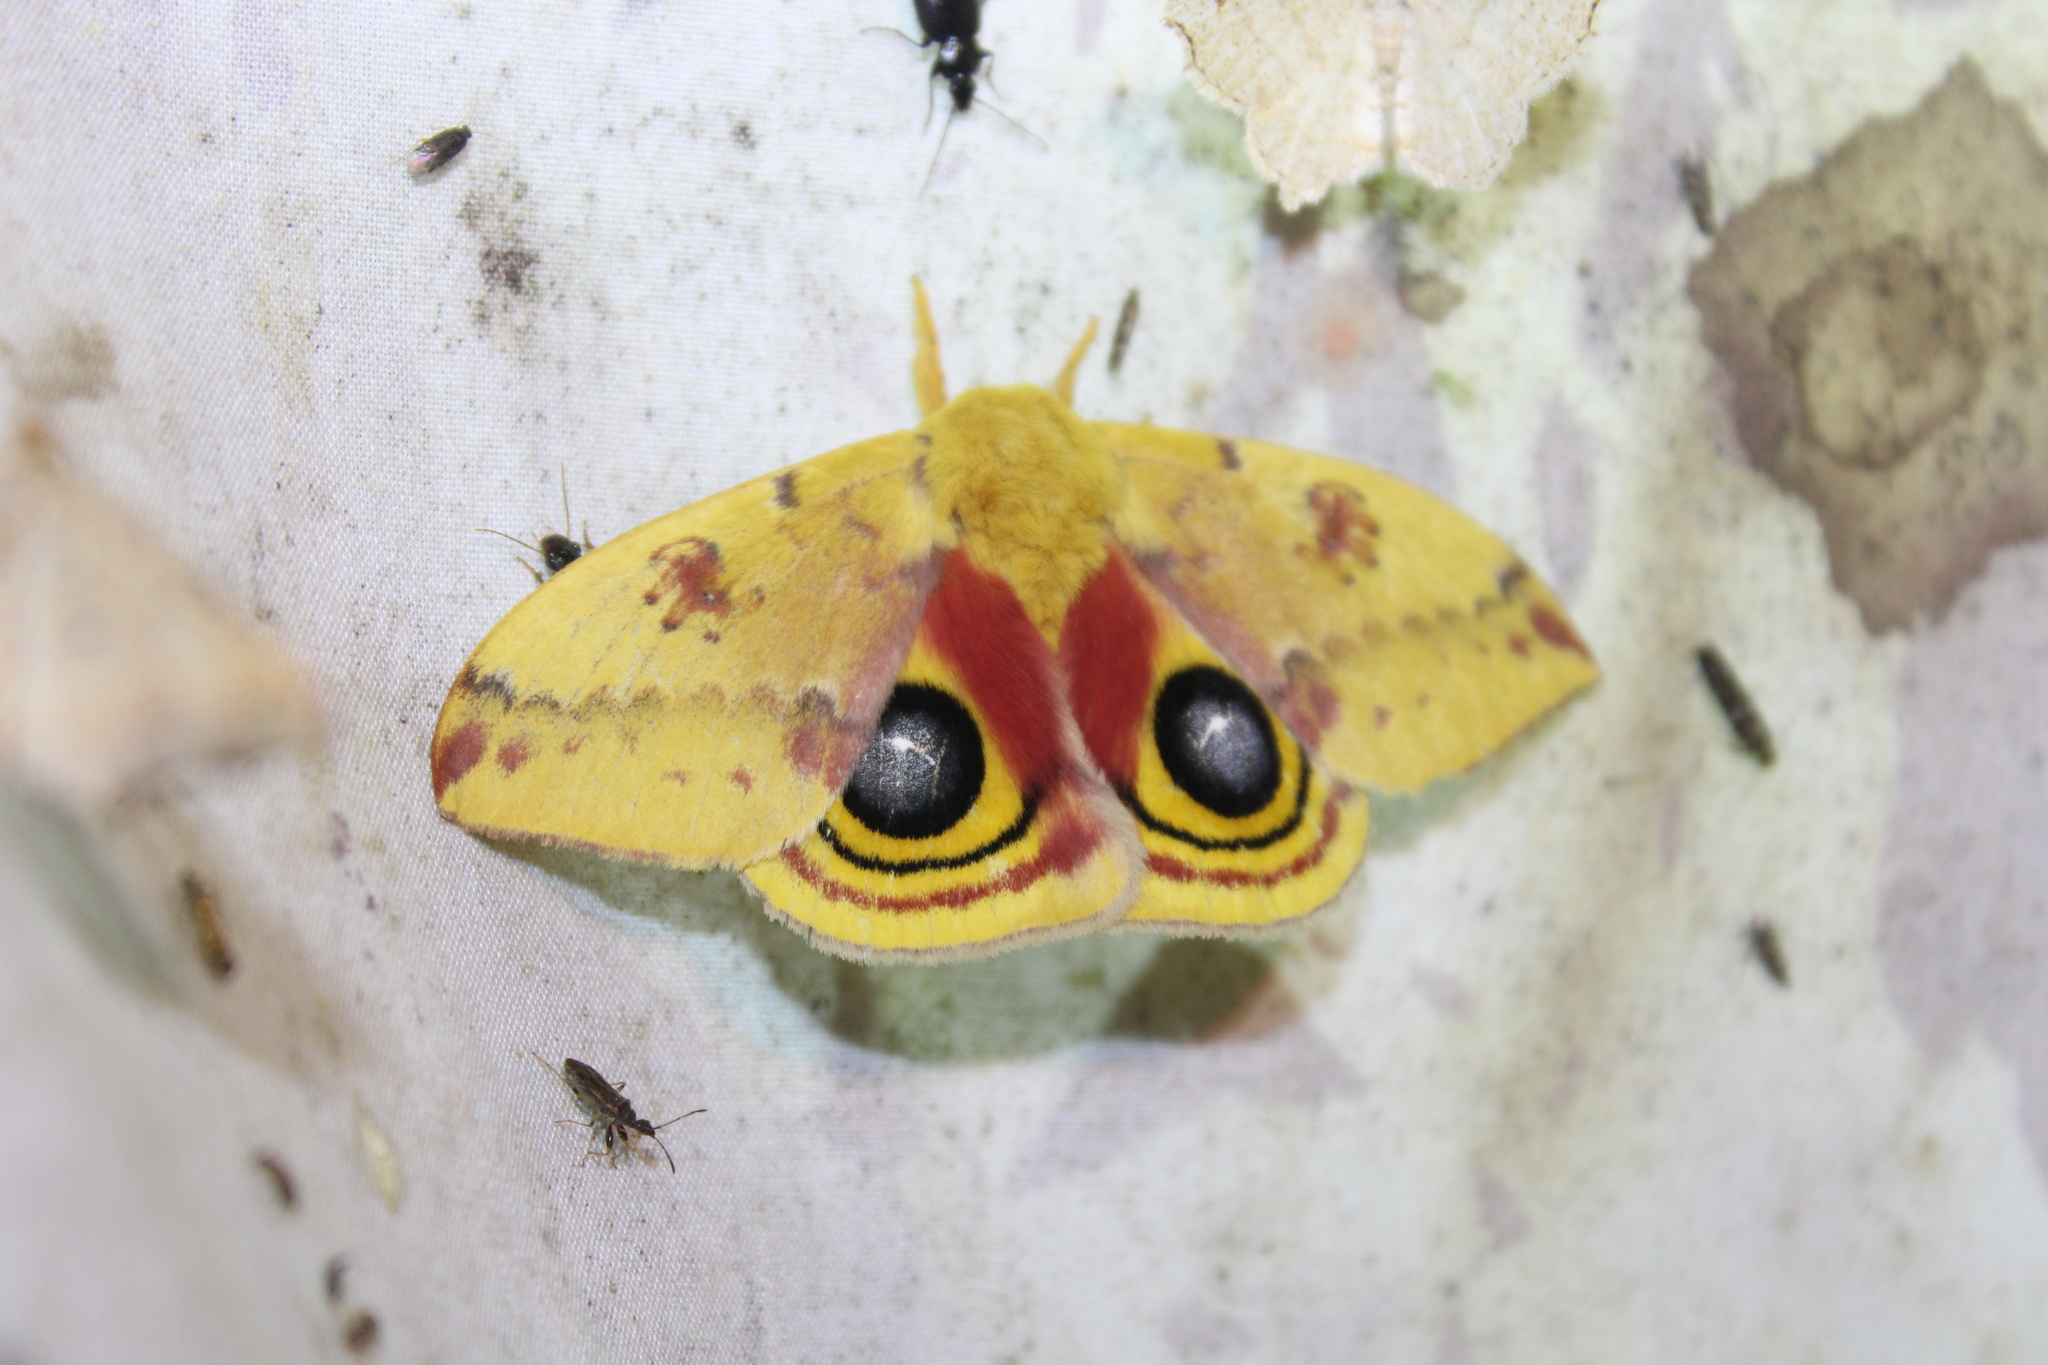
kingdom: Animalia
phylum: Arthropoda
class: Insecta
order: Lepidoptera
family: Saturniidae
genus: Automeris
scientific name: Automeris io
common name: Io moth
